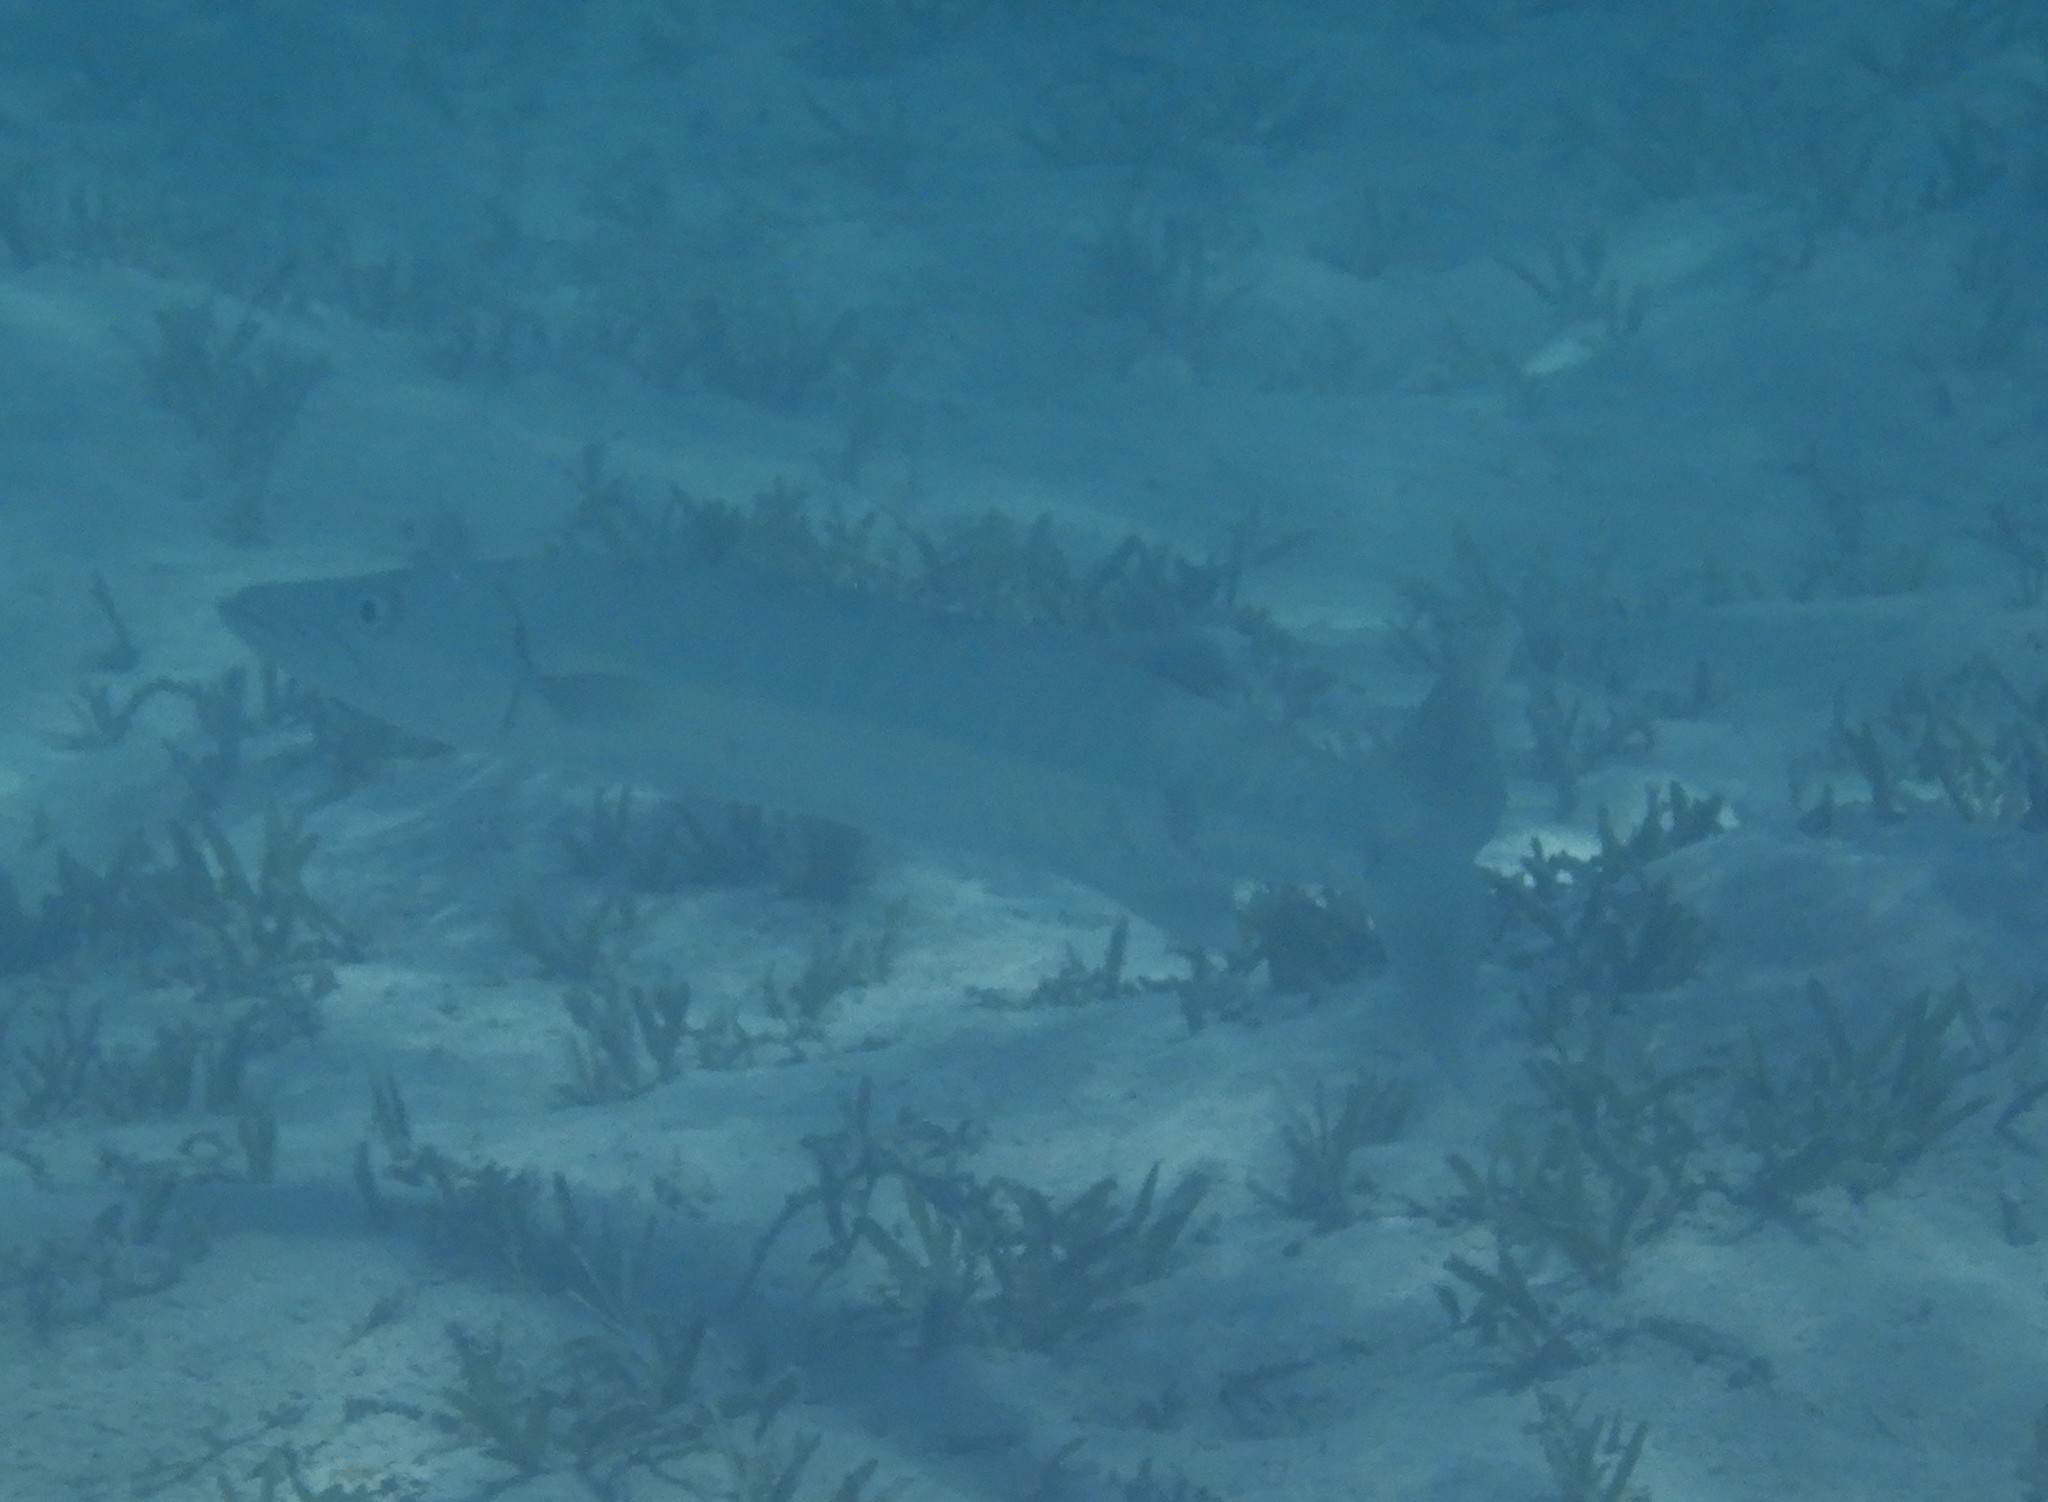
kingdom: Animalia
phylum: Chordata
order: Perciformes
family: Sphyraenidae
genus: Sphyraena
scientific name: Sphyraena barracuda
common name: Great barracuda
